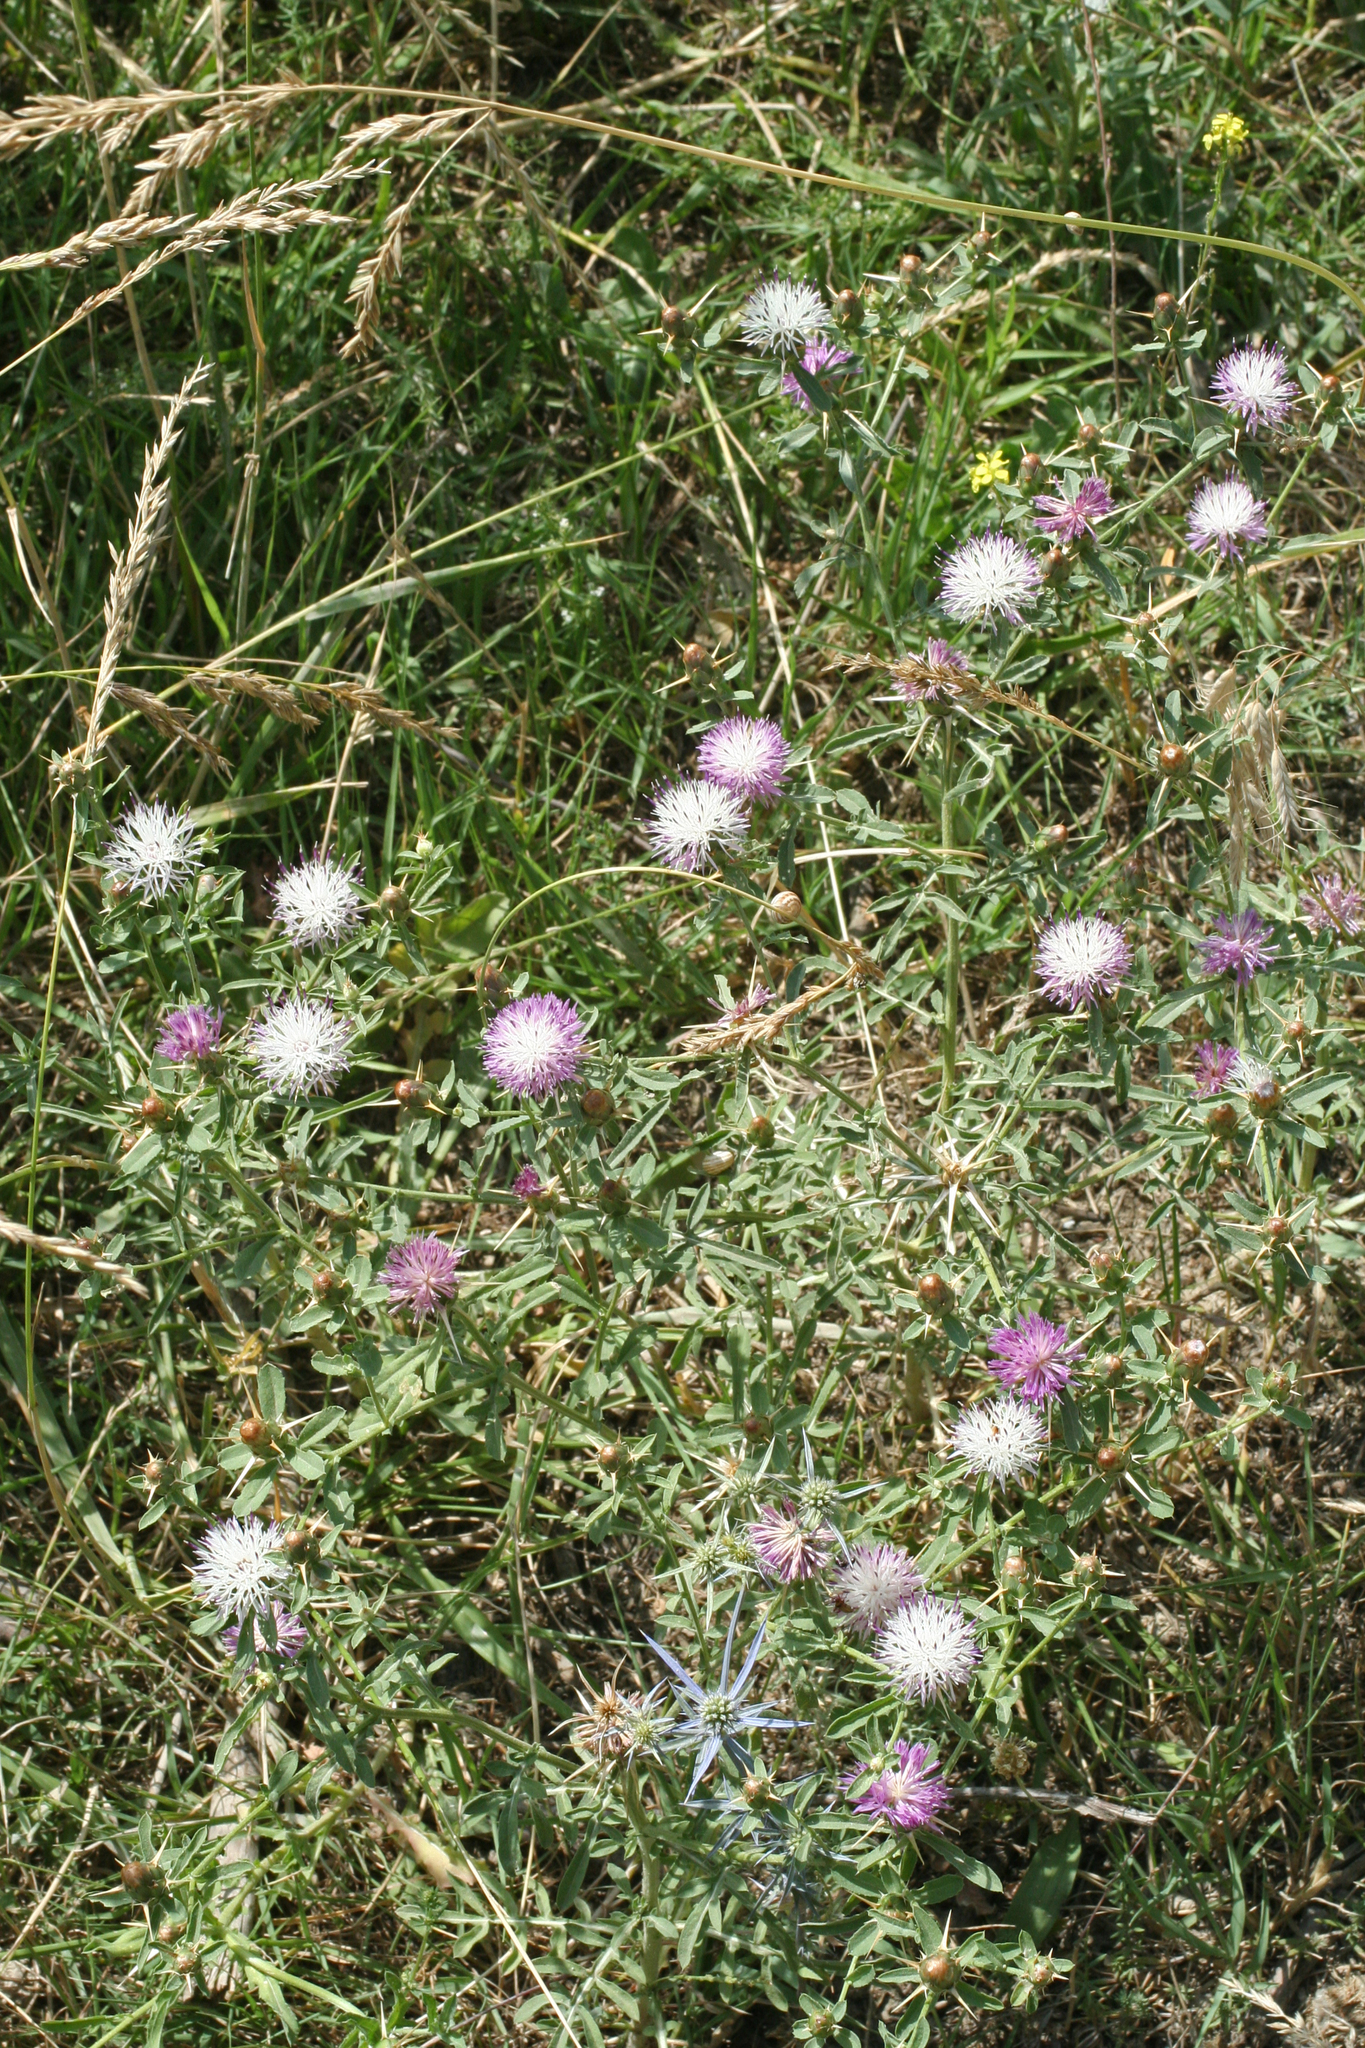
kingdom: Plantae
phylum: Tracheophyta
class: Magnoliopsida
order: Asterales
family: Asteraceae
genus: Centaurea
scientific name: Centaurea iberica
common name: Iberian knapweed
